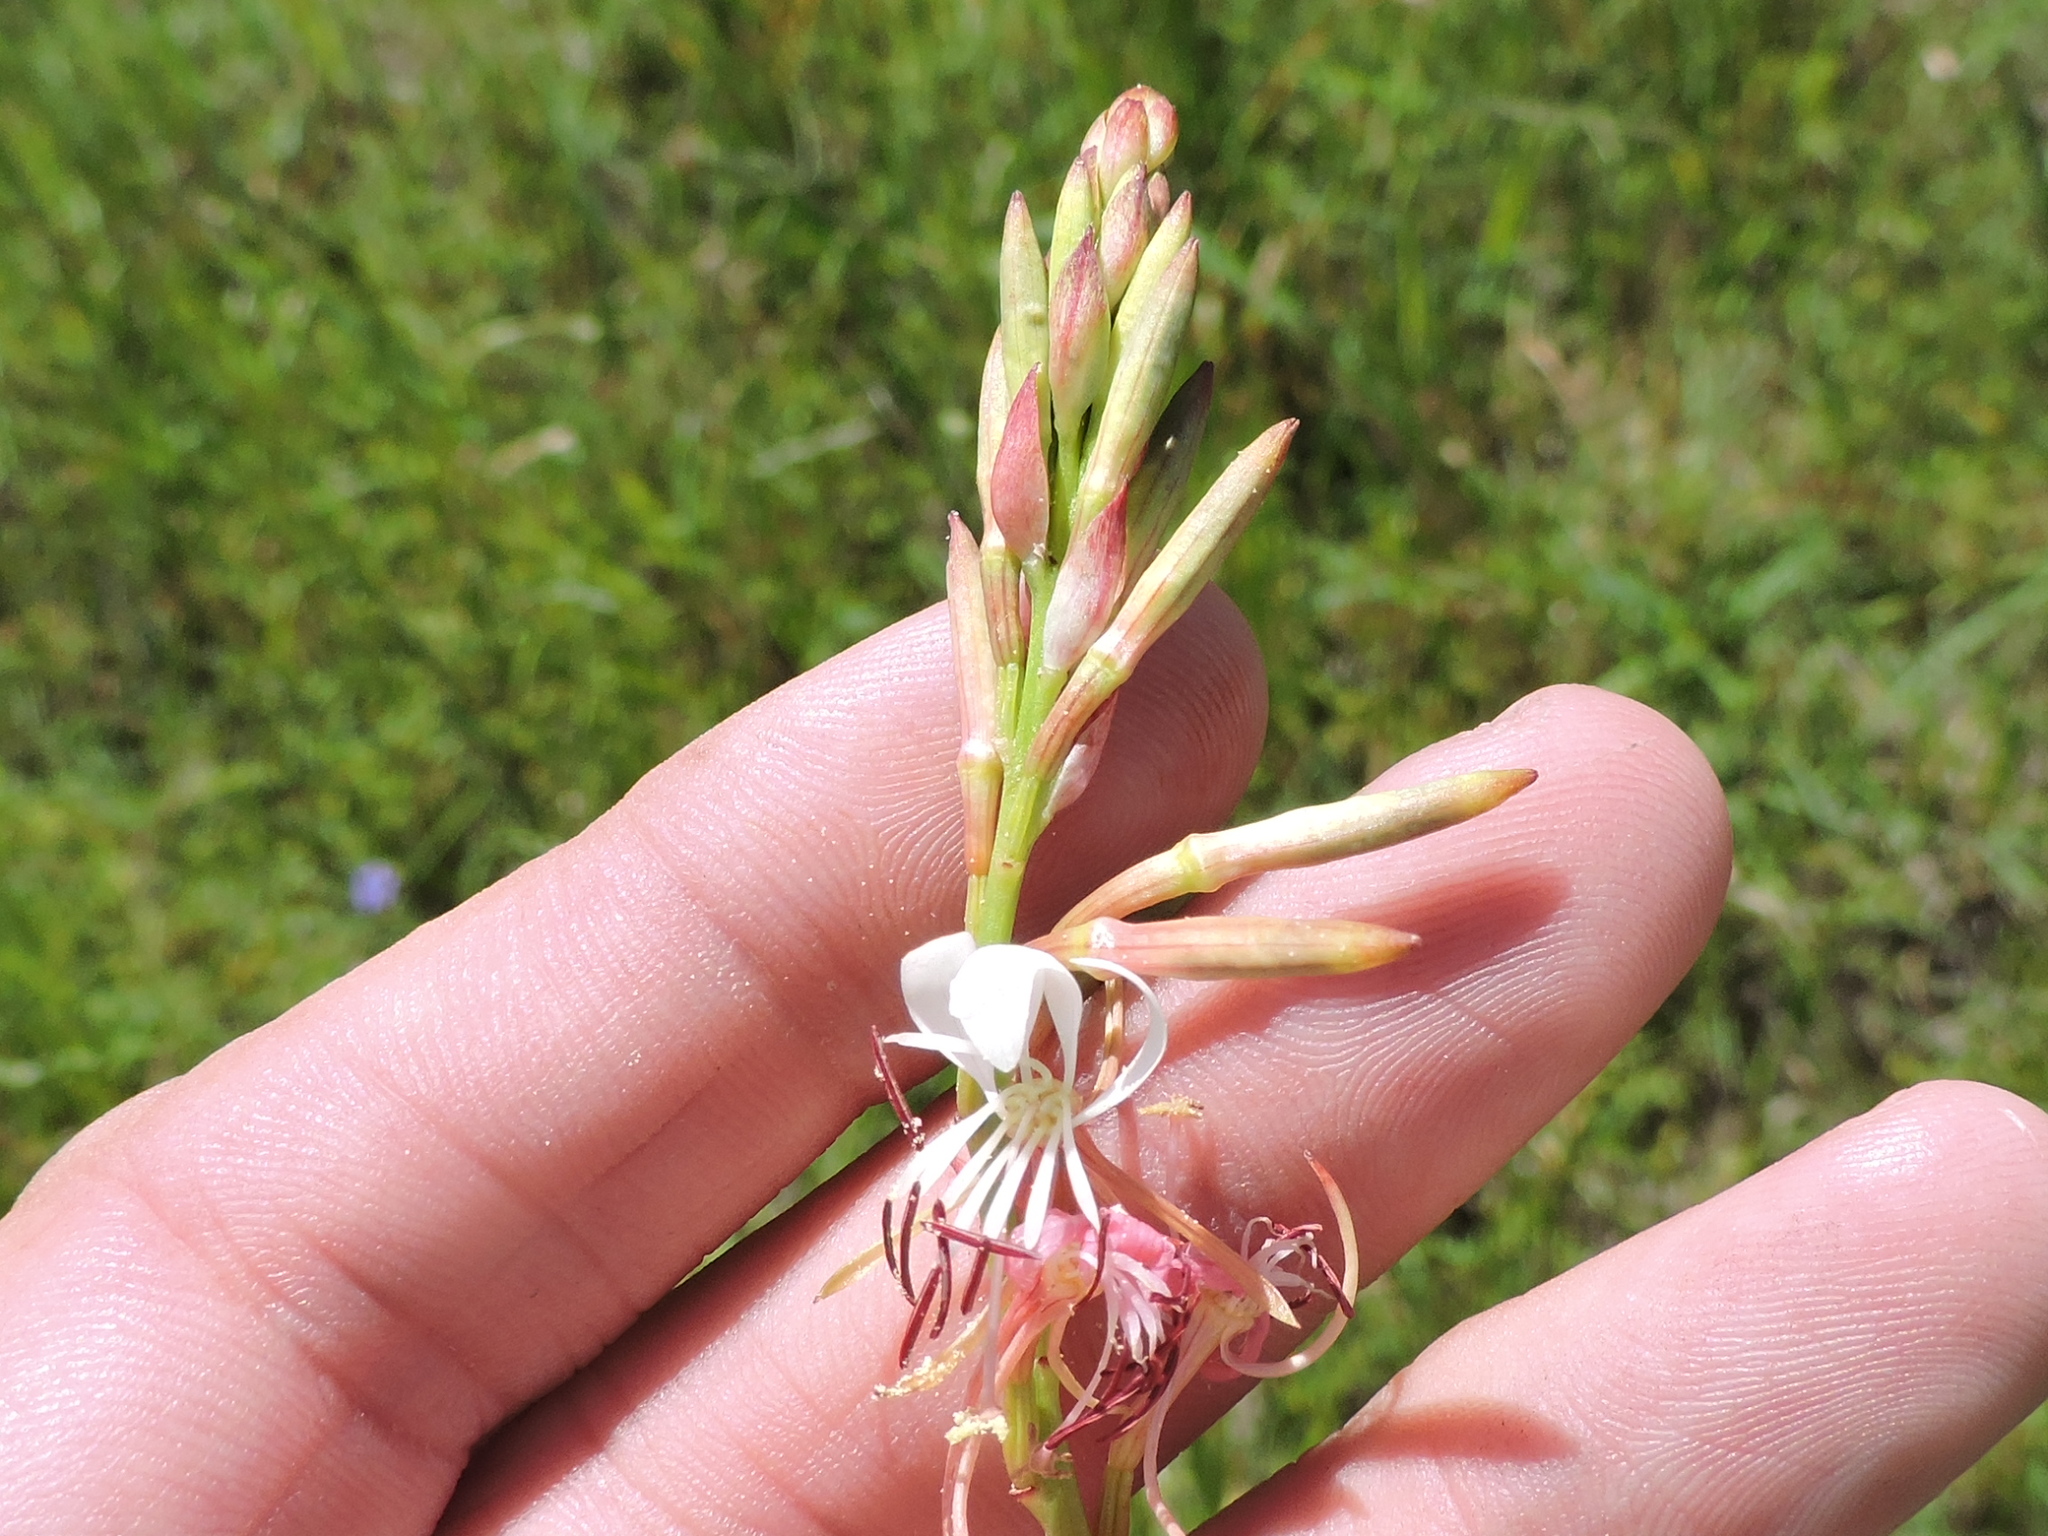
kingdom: Plantae
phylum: Tracheophyta
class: Magnoliopsida
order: Myrtales
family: Onagraceae
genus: Oenothera
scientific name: Oenothera suffulta
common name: Kisses
